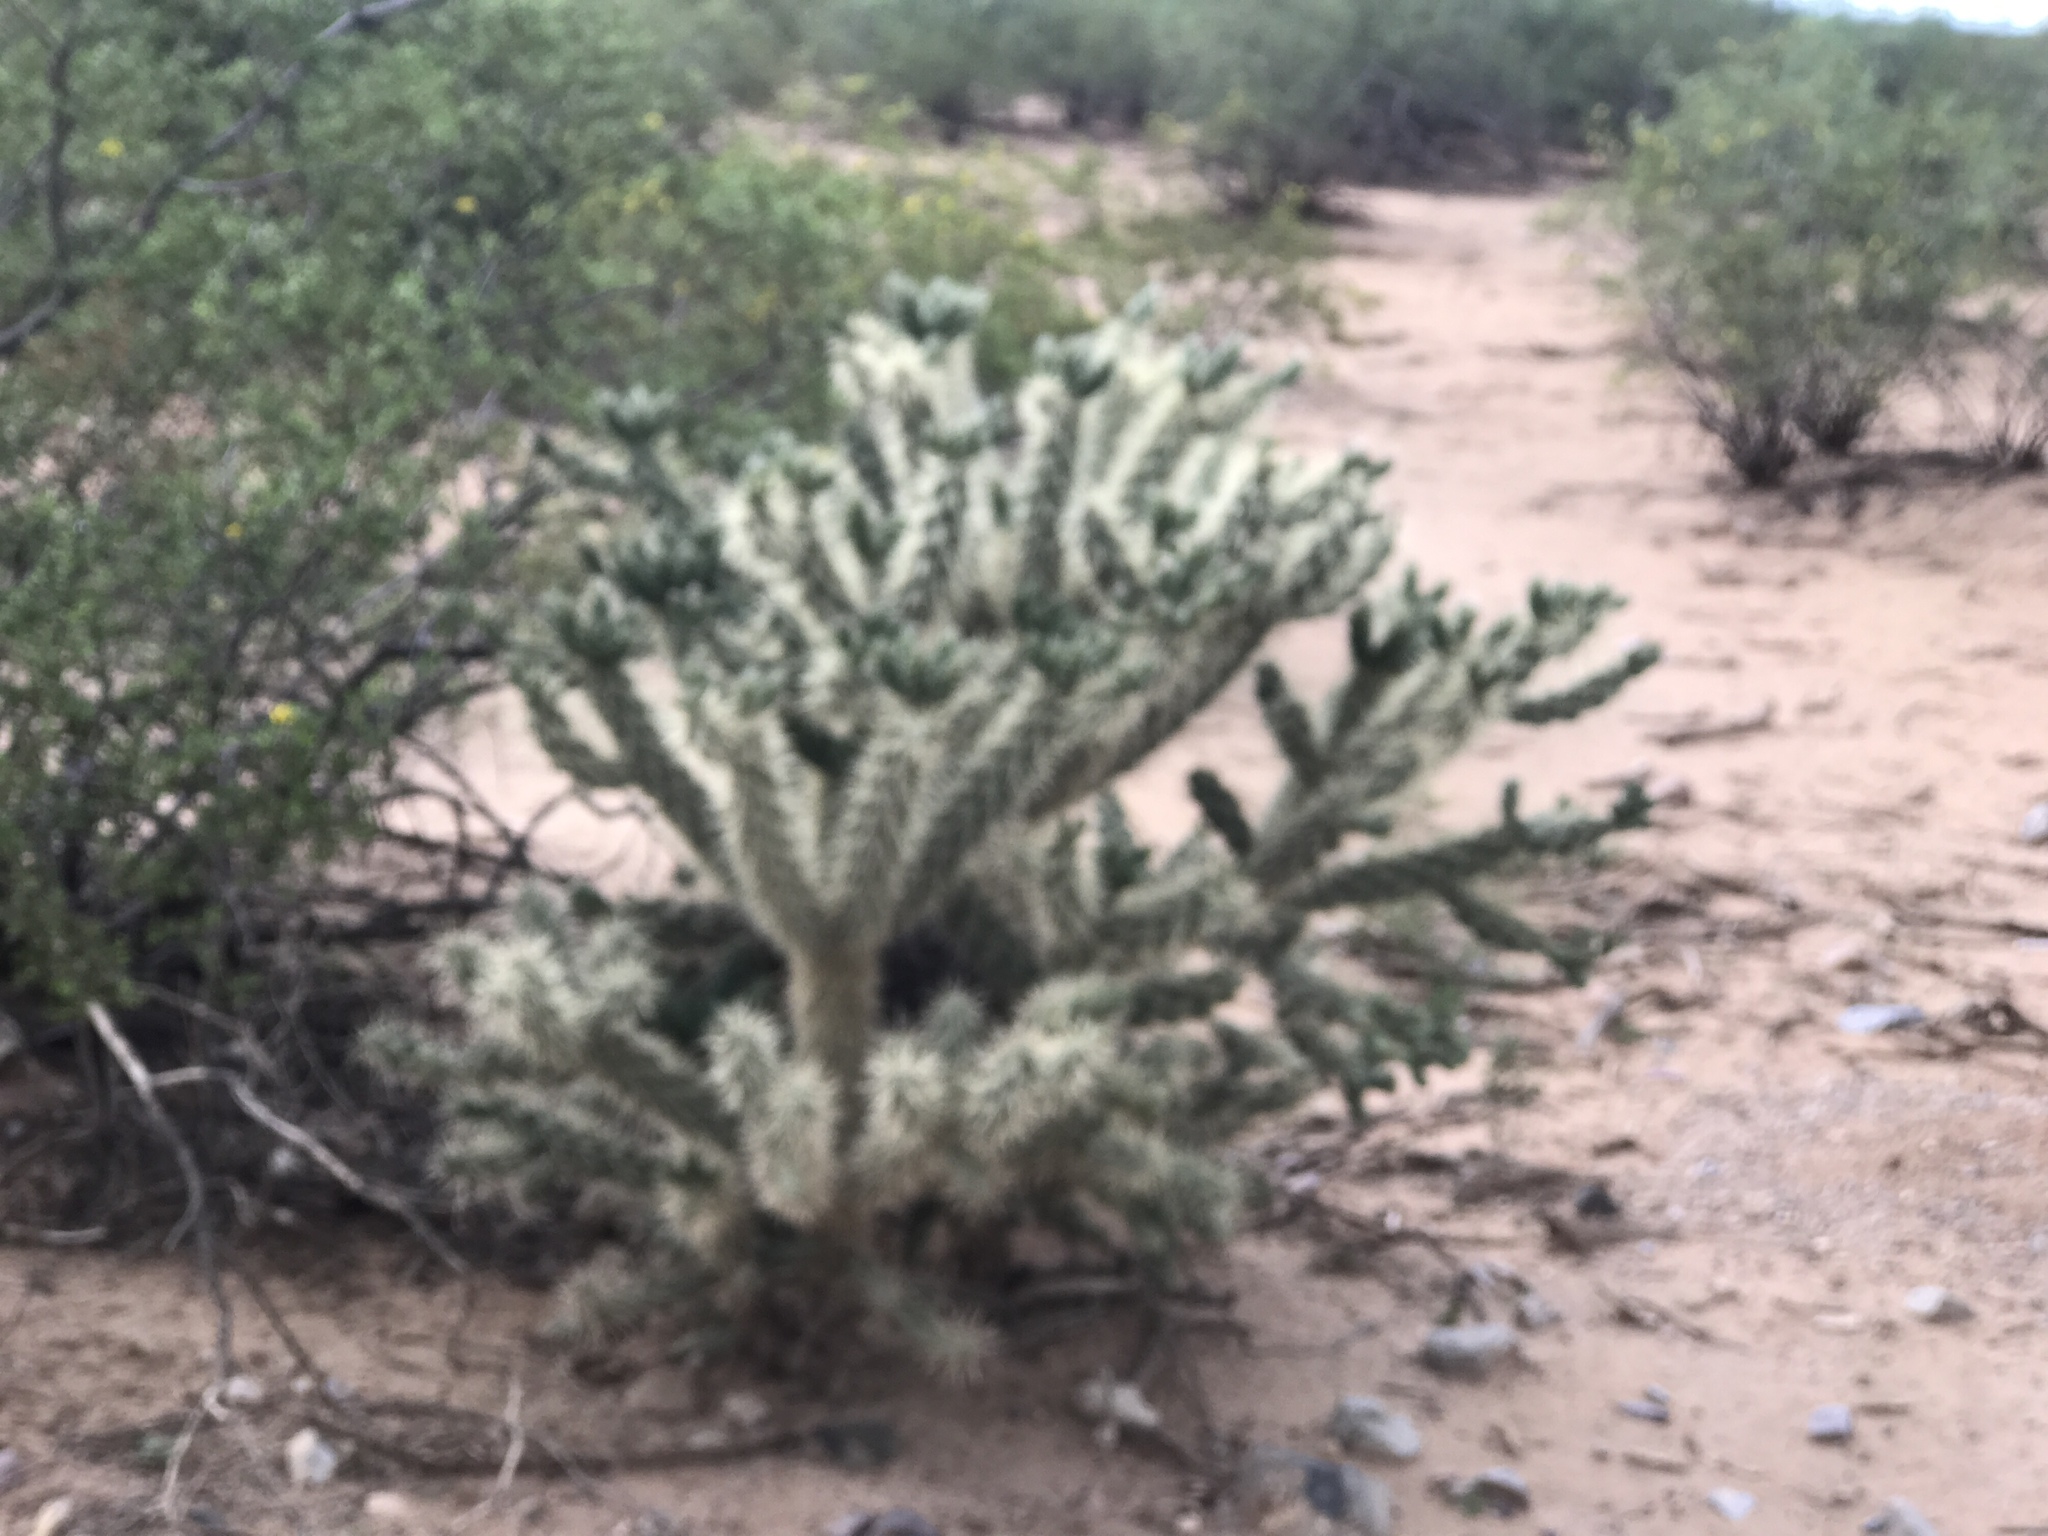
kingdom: Plantae
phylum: Tracheophyta
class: Magnoliopsida
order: Caryophyllales
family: Cactaceae
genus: Cylindropuntia
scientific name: Cylindropuntia fulgida
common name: Jumping cholla
